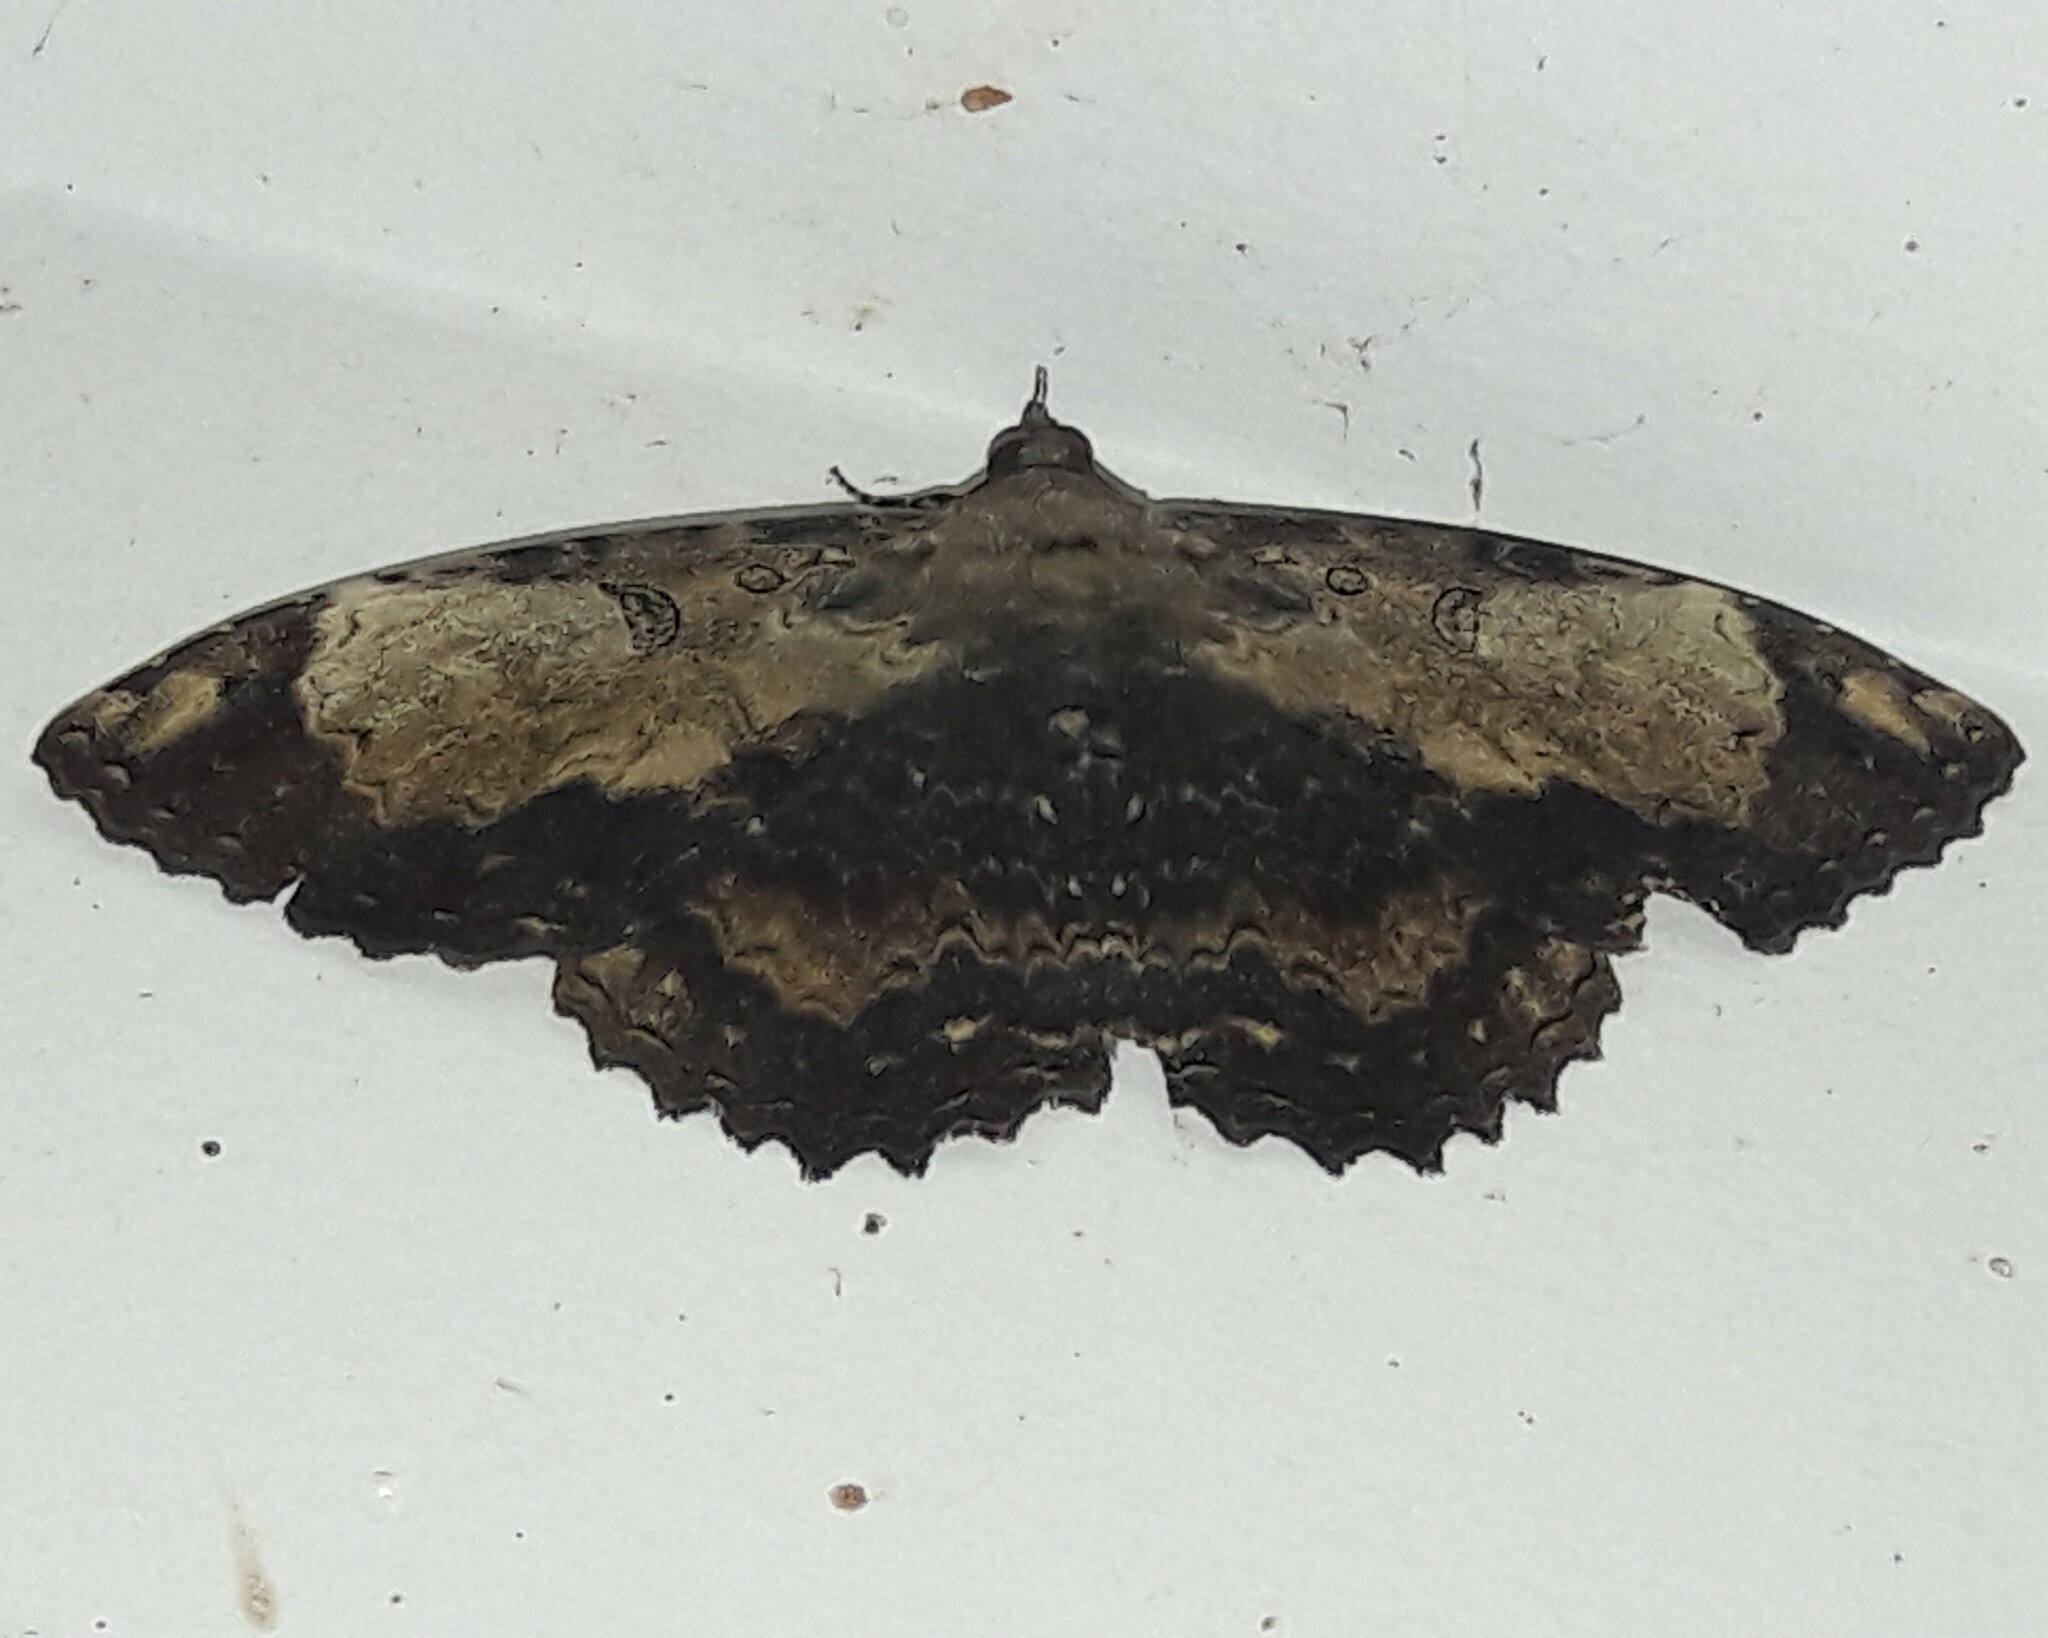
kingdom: Animalia
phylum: Arthropoda
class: Insecta
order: Lepidoptera
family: Erebidae
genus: Feigeria
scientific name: Feigeria magna
